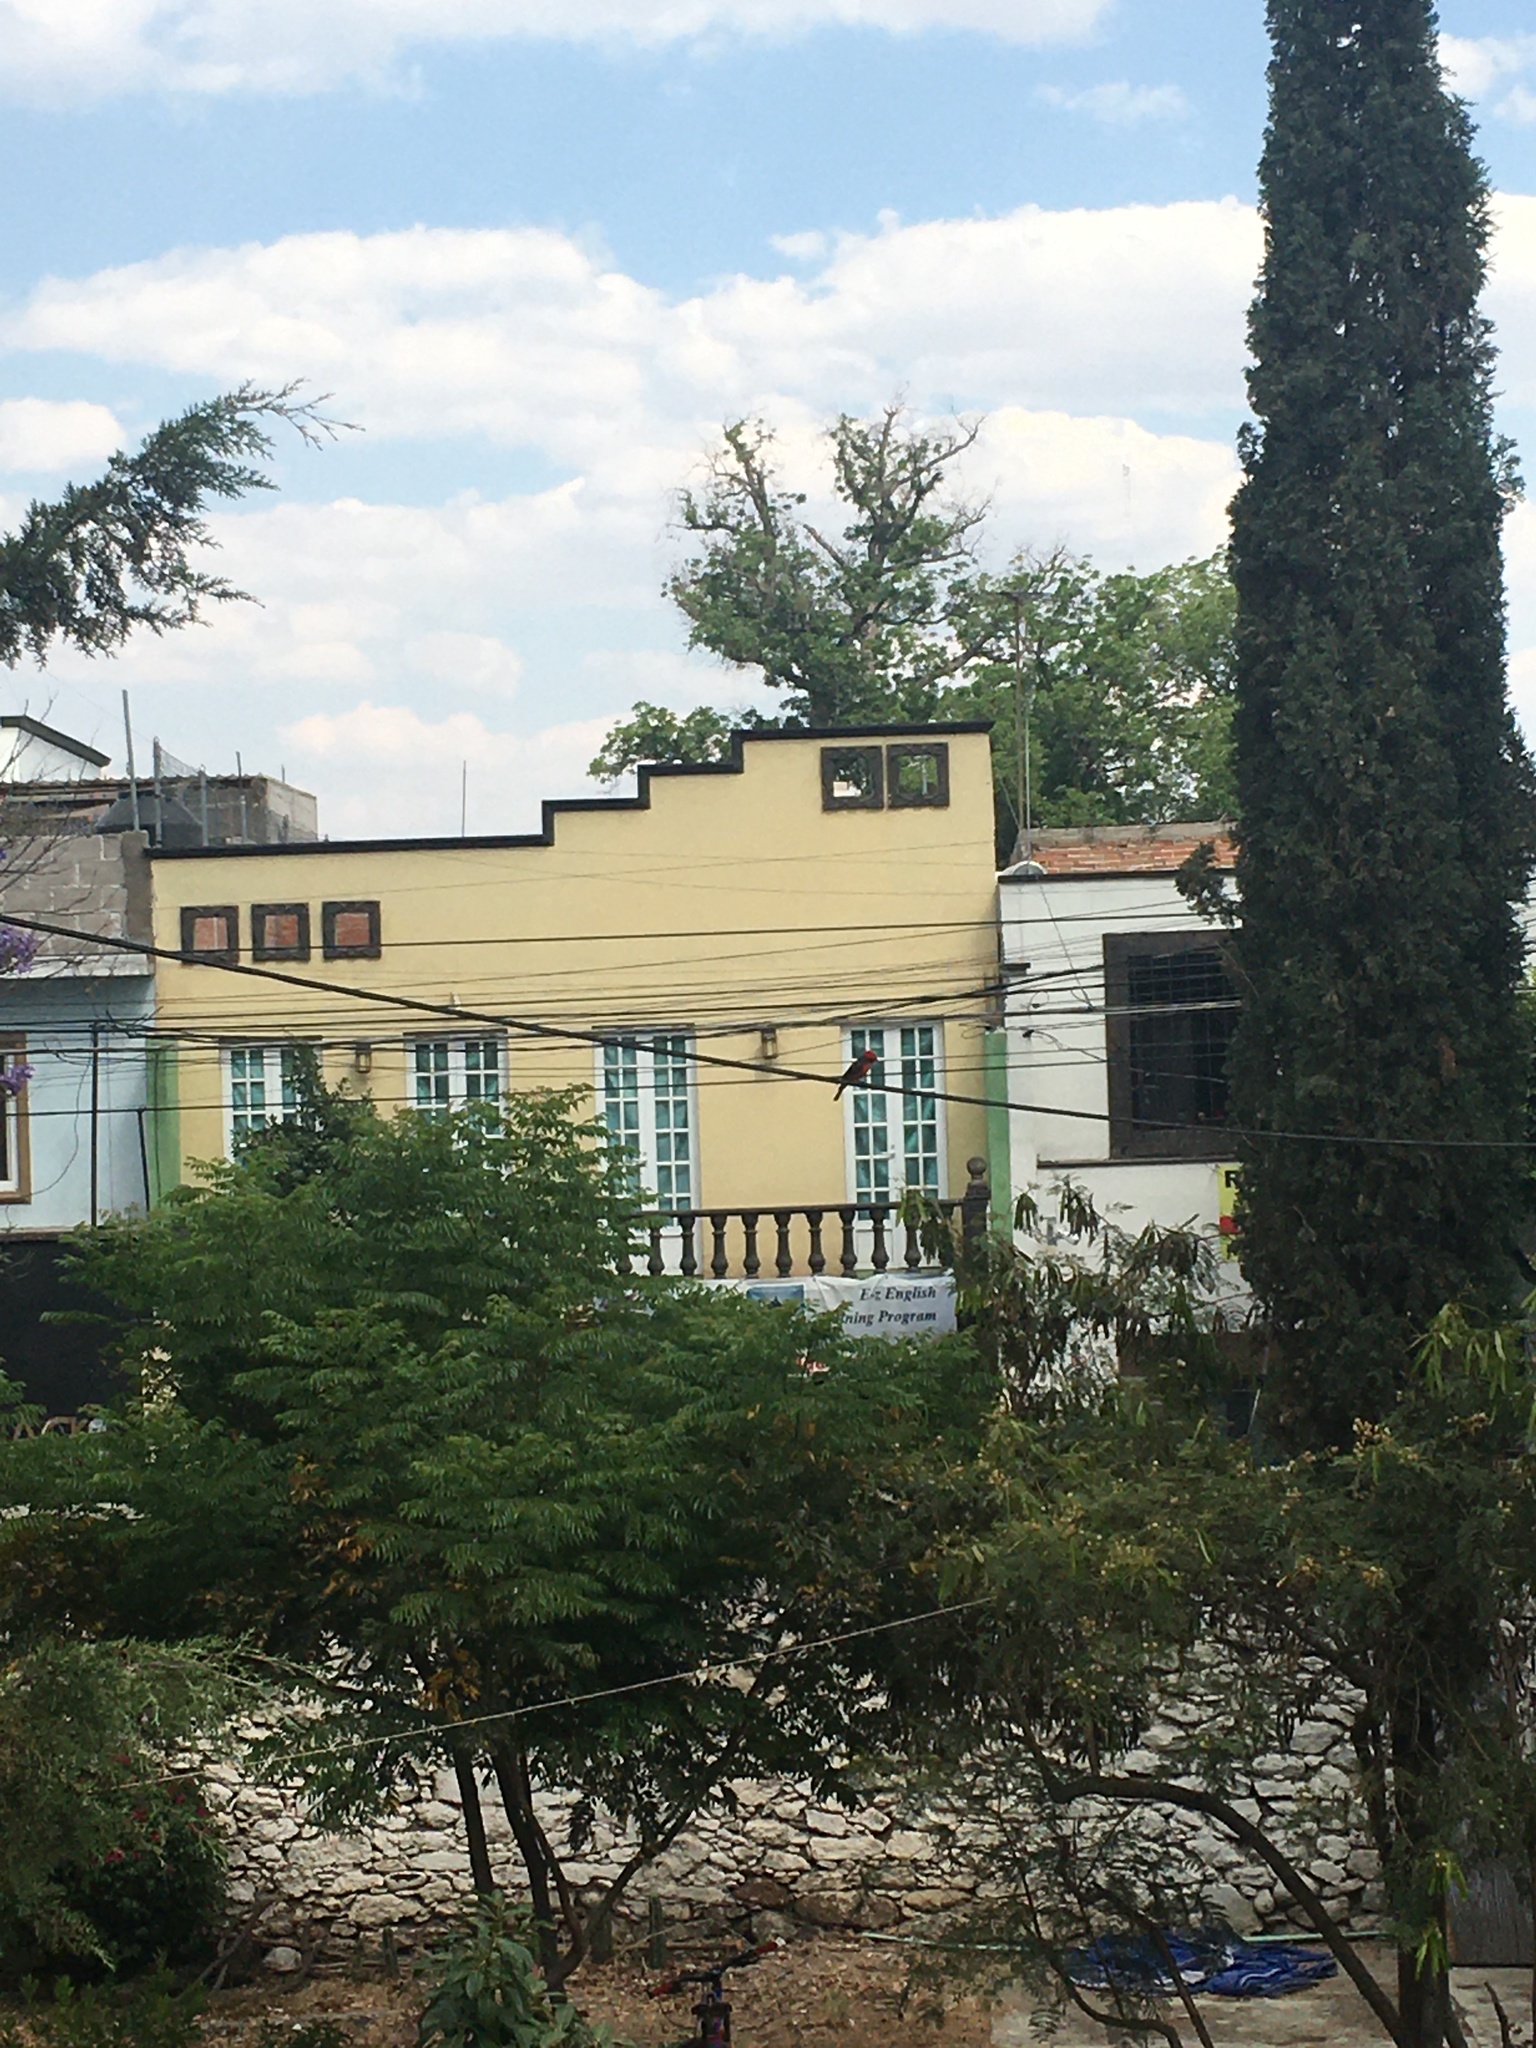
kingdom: Animalia
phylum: Chordata
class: Aves
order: Passeriformes
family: Tyrannidae
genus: Pyrocephalus
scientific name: Pyrocephalus rubinus
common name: Vermilion flycatcher
